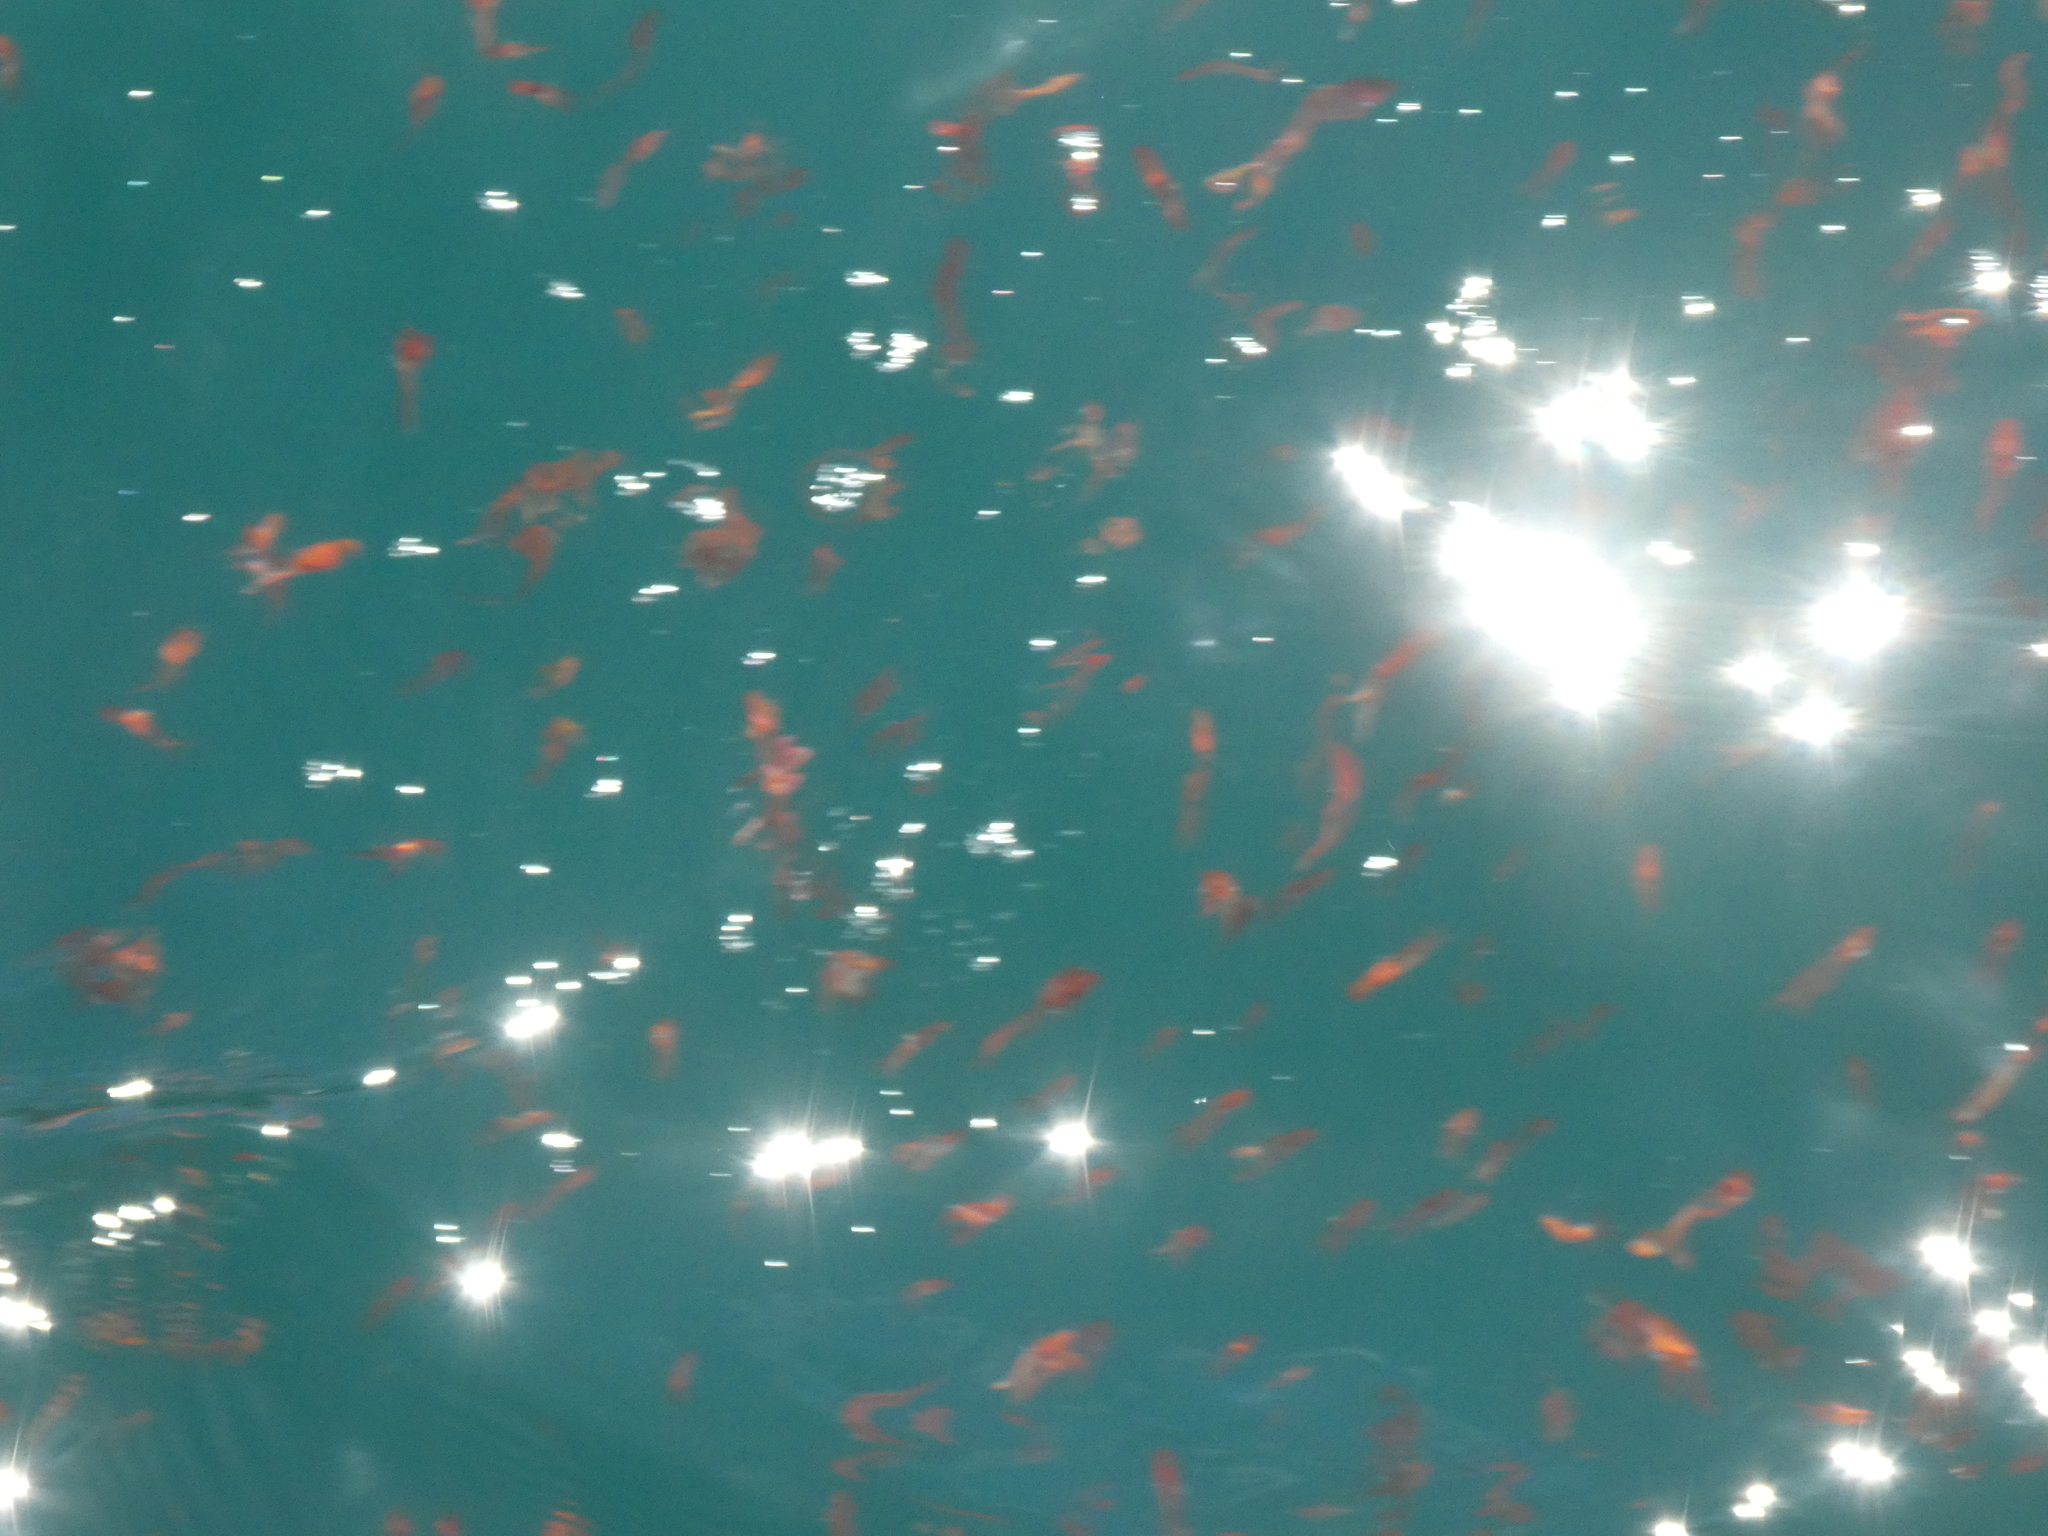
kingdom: Animalia
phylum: Arthropoda
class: Malacostraca
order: Decapoda
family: Munididae
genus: Grimothea
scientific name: Grimothea gregaria
